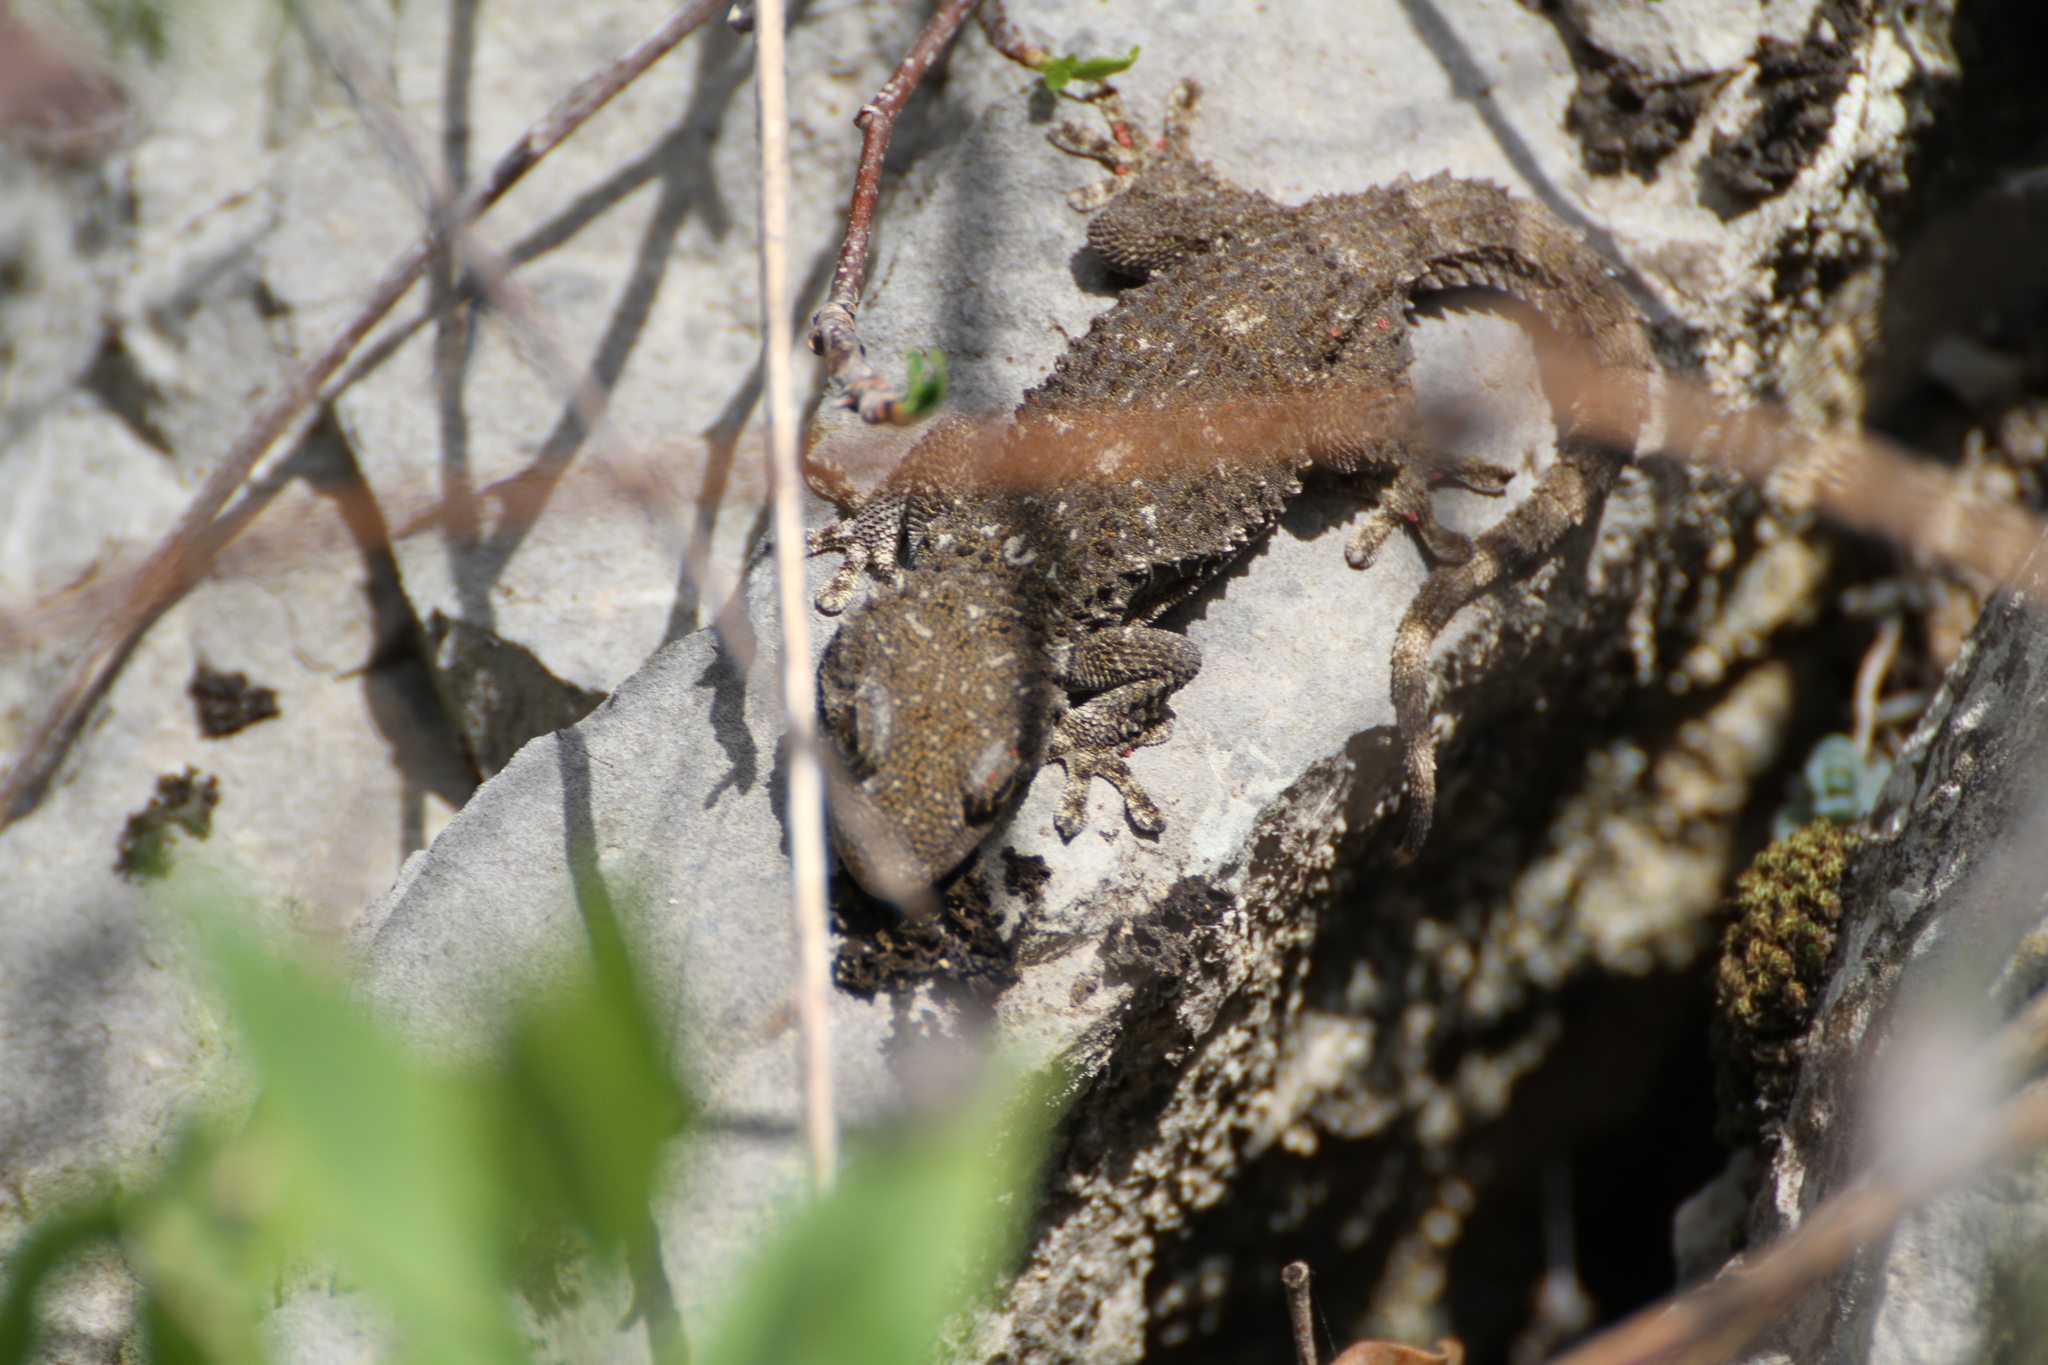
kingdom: Animalia
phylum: Chordata
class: Squamata
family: Phyllodactylidae
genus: Tarentola
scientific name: Tarentola mauritanica
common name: Moorish gecko
